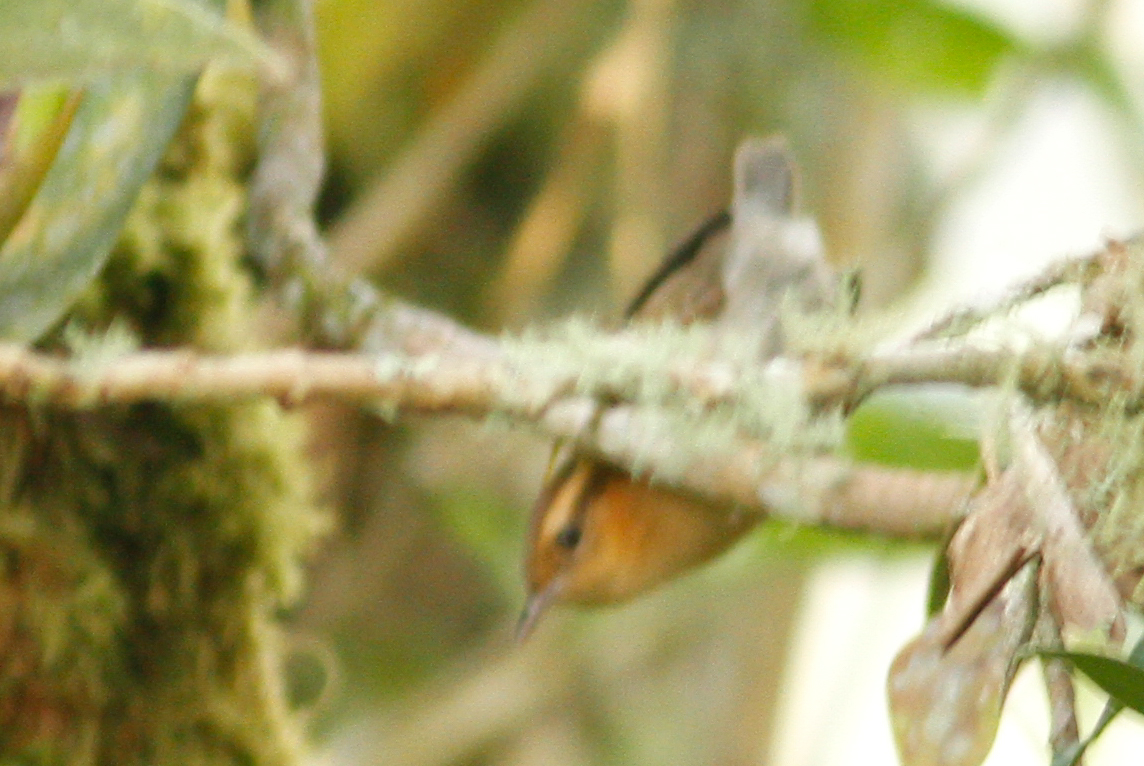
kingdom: Animalia
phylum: Chordata
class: Aves
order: Passeriformes
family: Troglodytidae
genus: Troglodytes
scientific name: Troglodytes solstitialis
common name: Mountain wren
